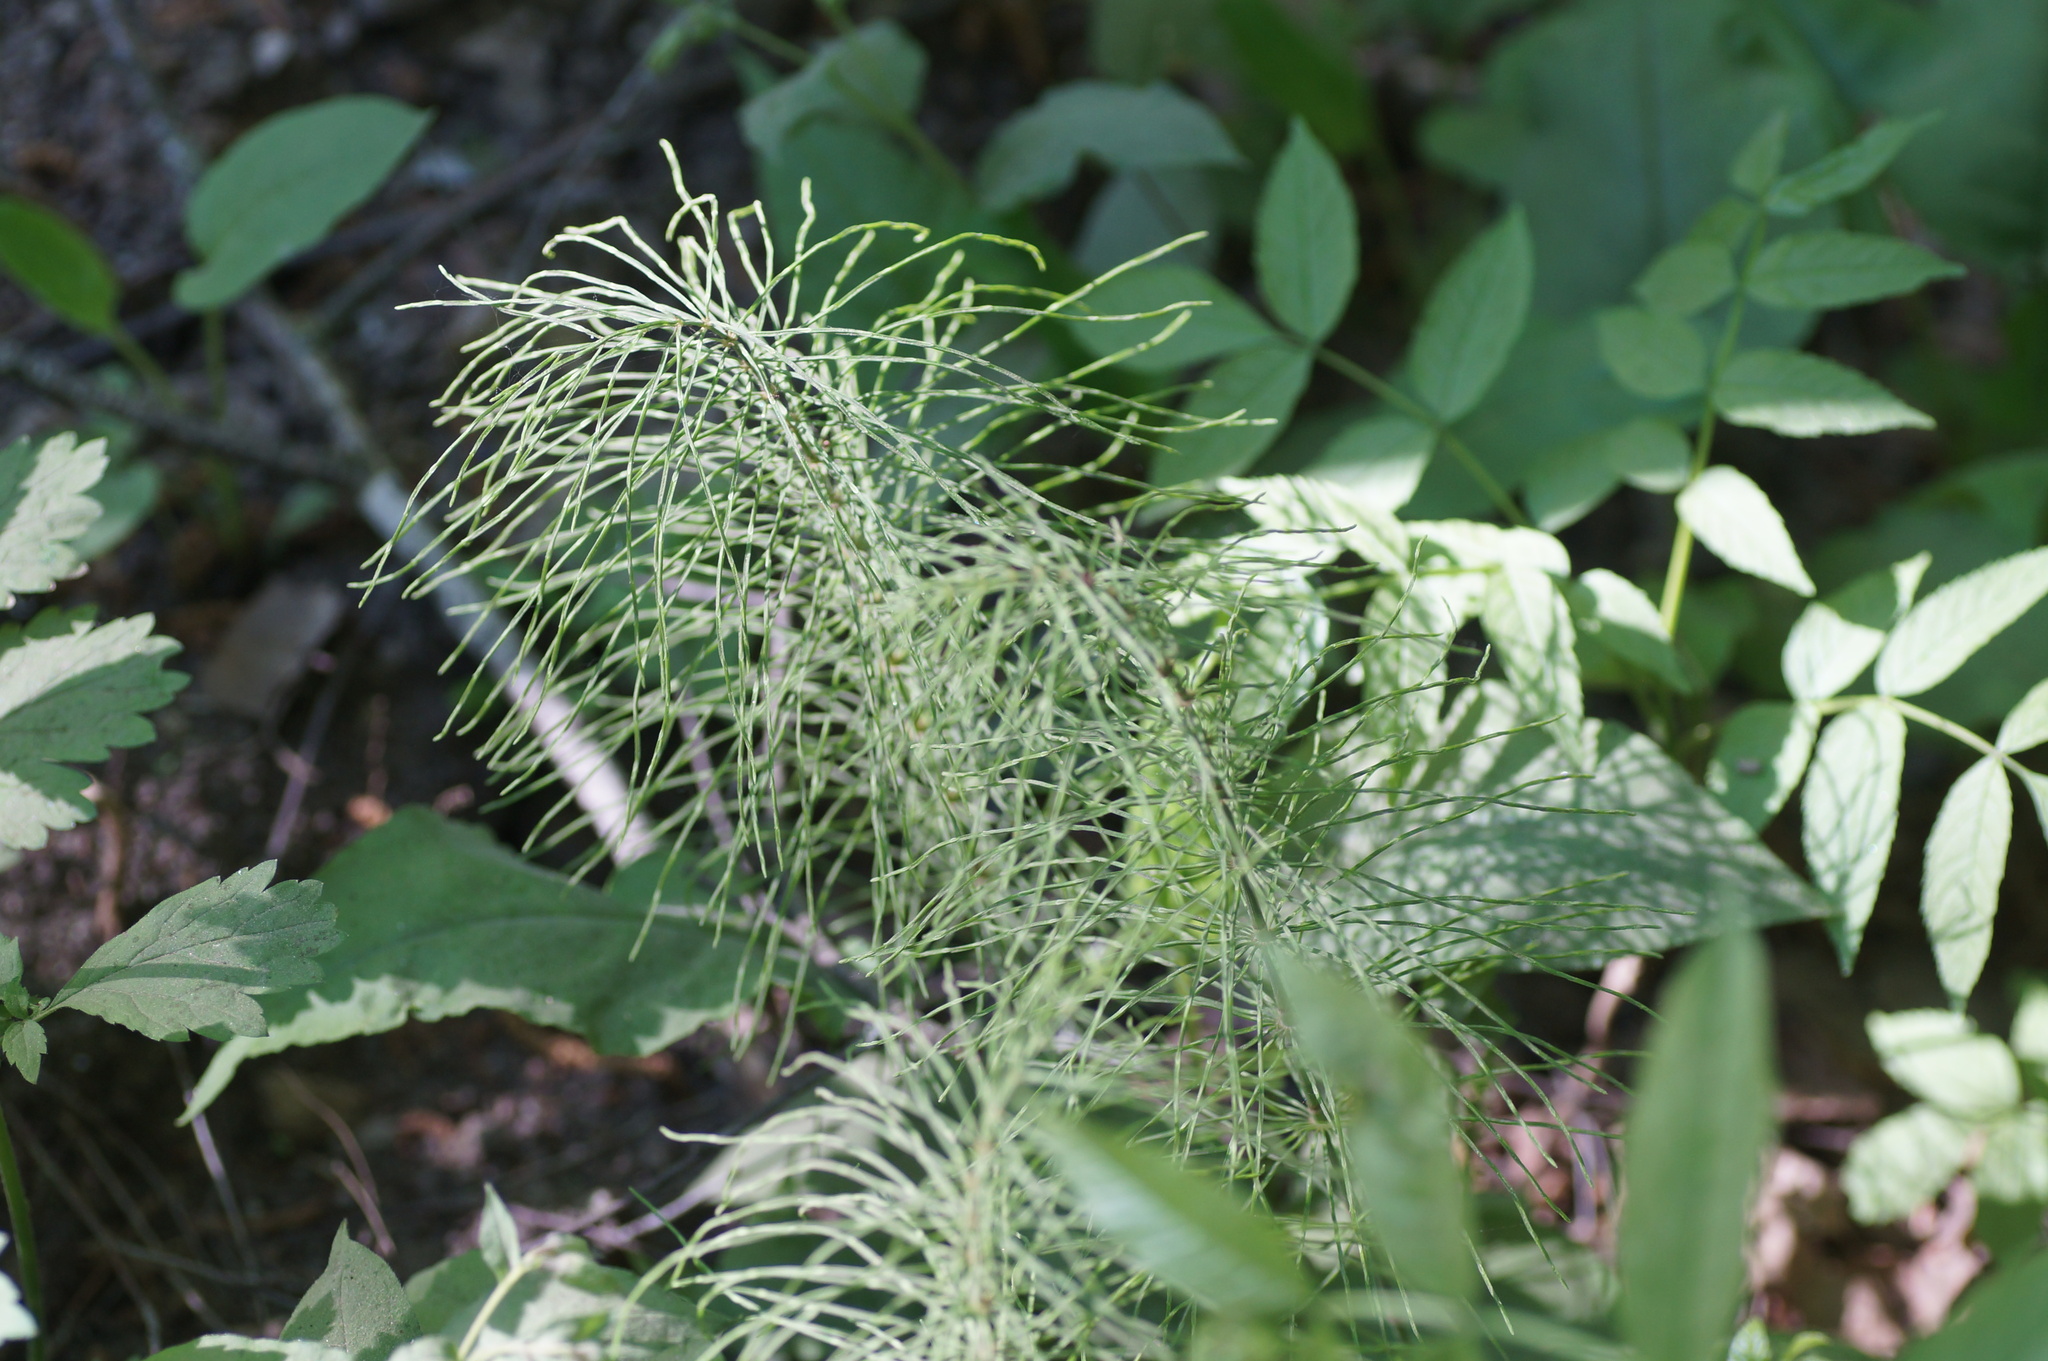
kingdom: Plantae
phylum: Tracheophyta
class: Polypodiopsida
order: Equisetales
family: Equisetaceae
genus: Equisetum
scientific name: Equisetum pratense
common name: Meadow horsetail
